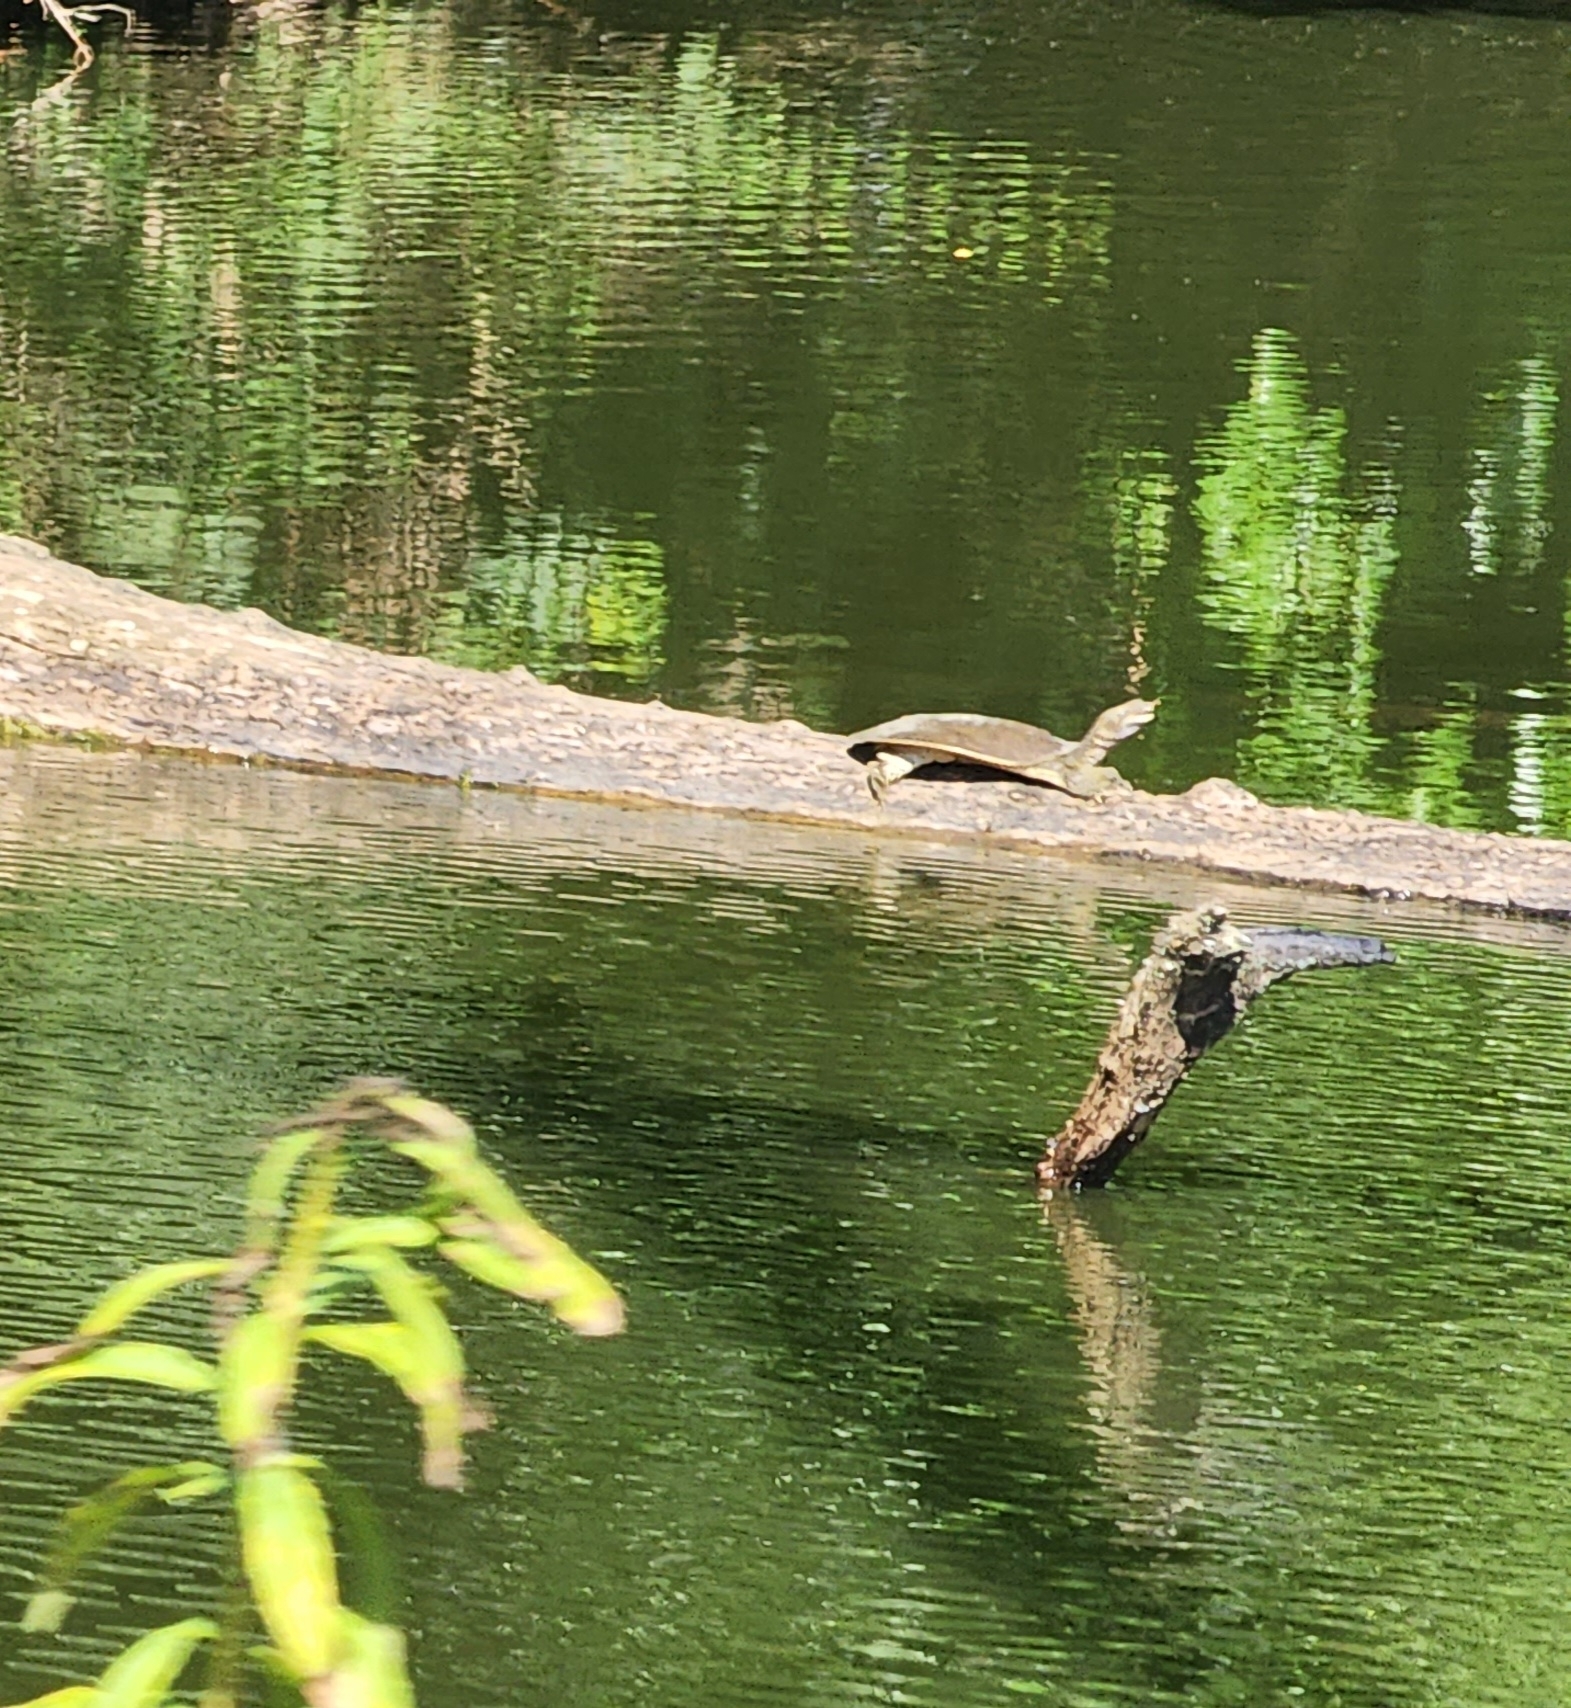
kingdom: Animalia
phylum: Chordata
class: Testudines
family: Trionychidae
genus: Apalone
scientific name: Apalone spinifera
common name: Spiny softshell turtle
